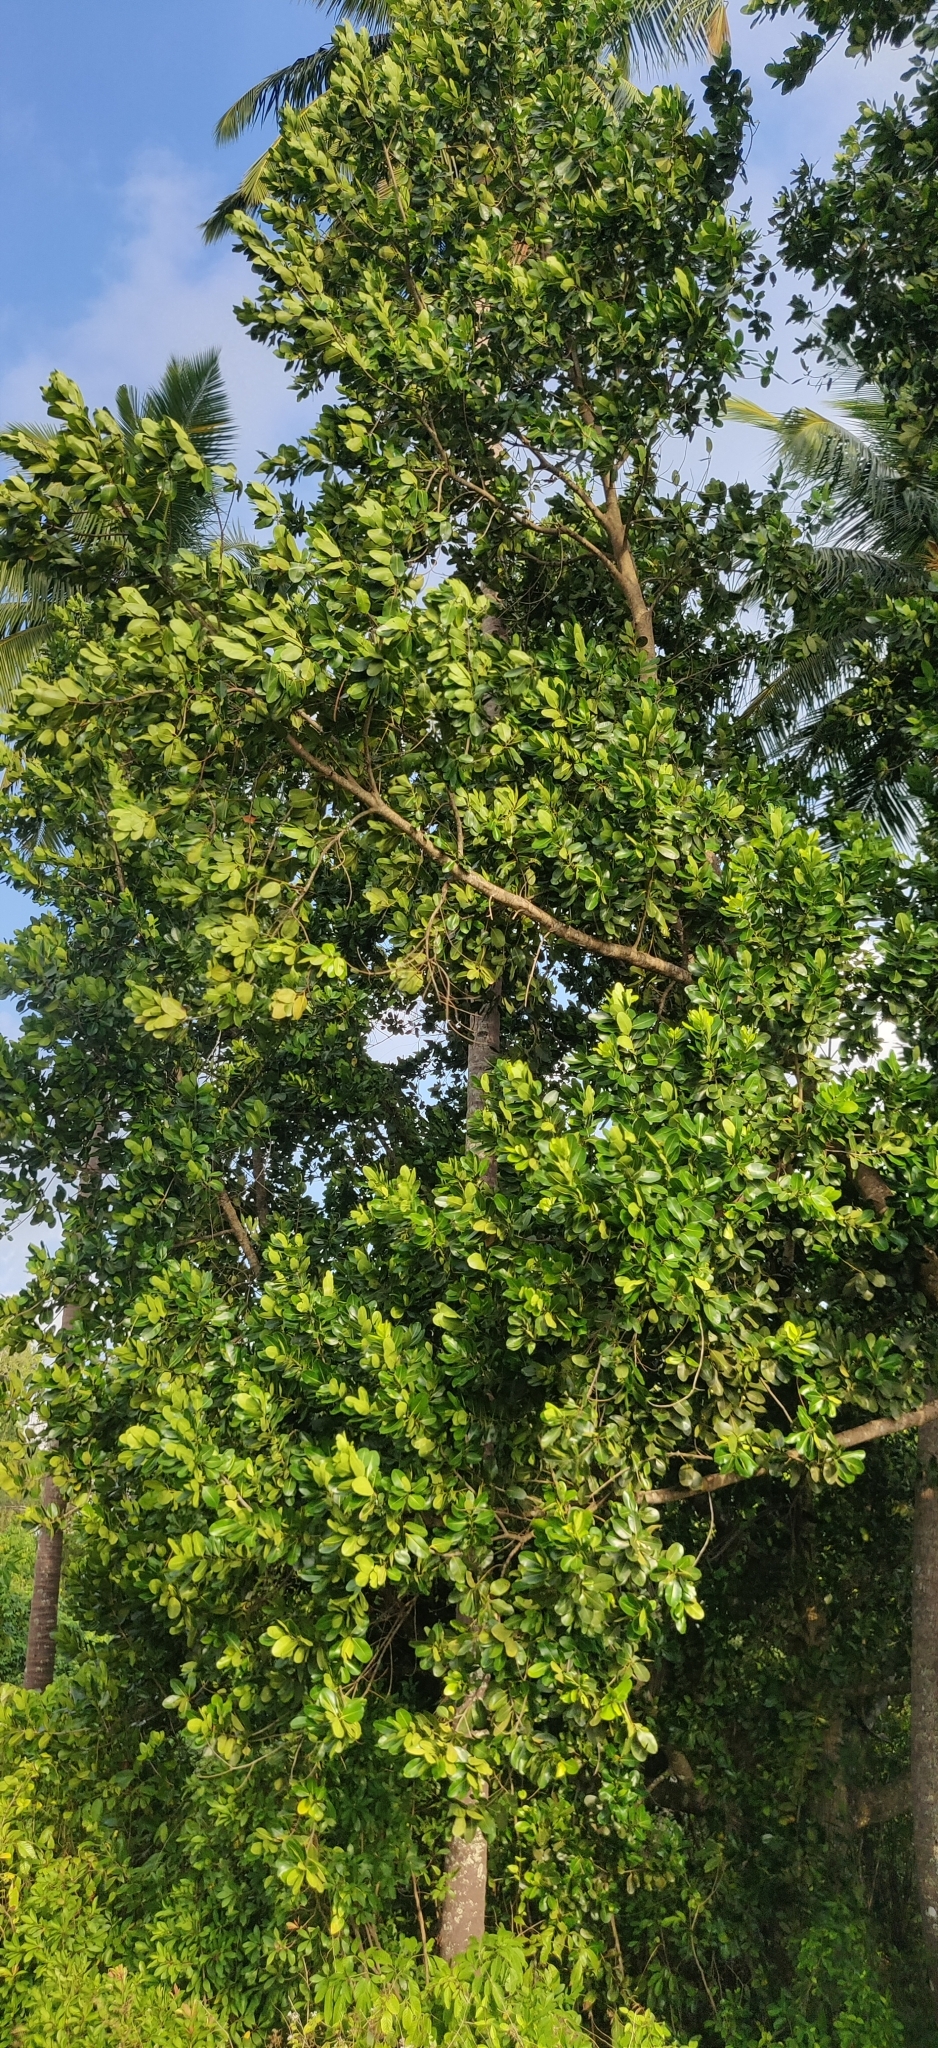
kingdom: Plantae
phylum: Tracheophyta
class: Magnoliopsida
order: Malpighiales
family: Calophyllaceae
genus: Calophyllum
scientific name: Calophyllum inophyllum
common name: Alexandrian laurel
